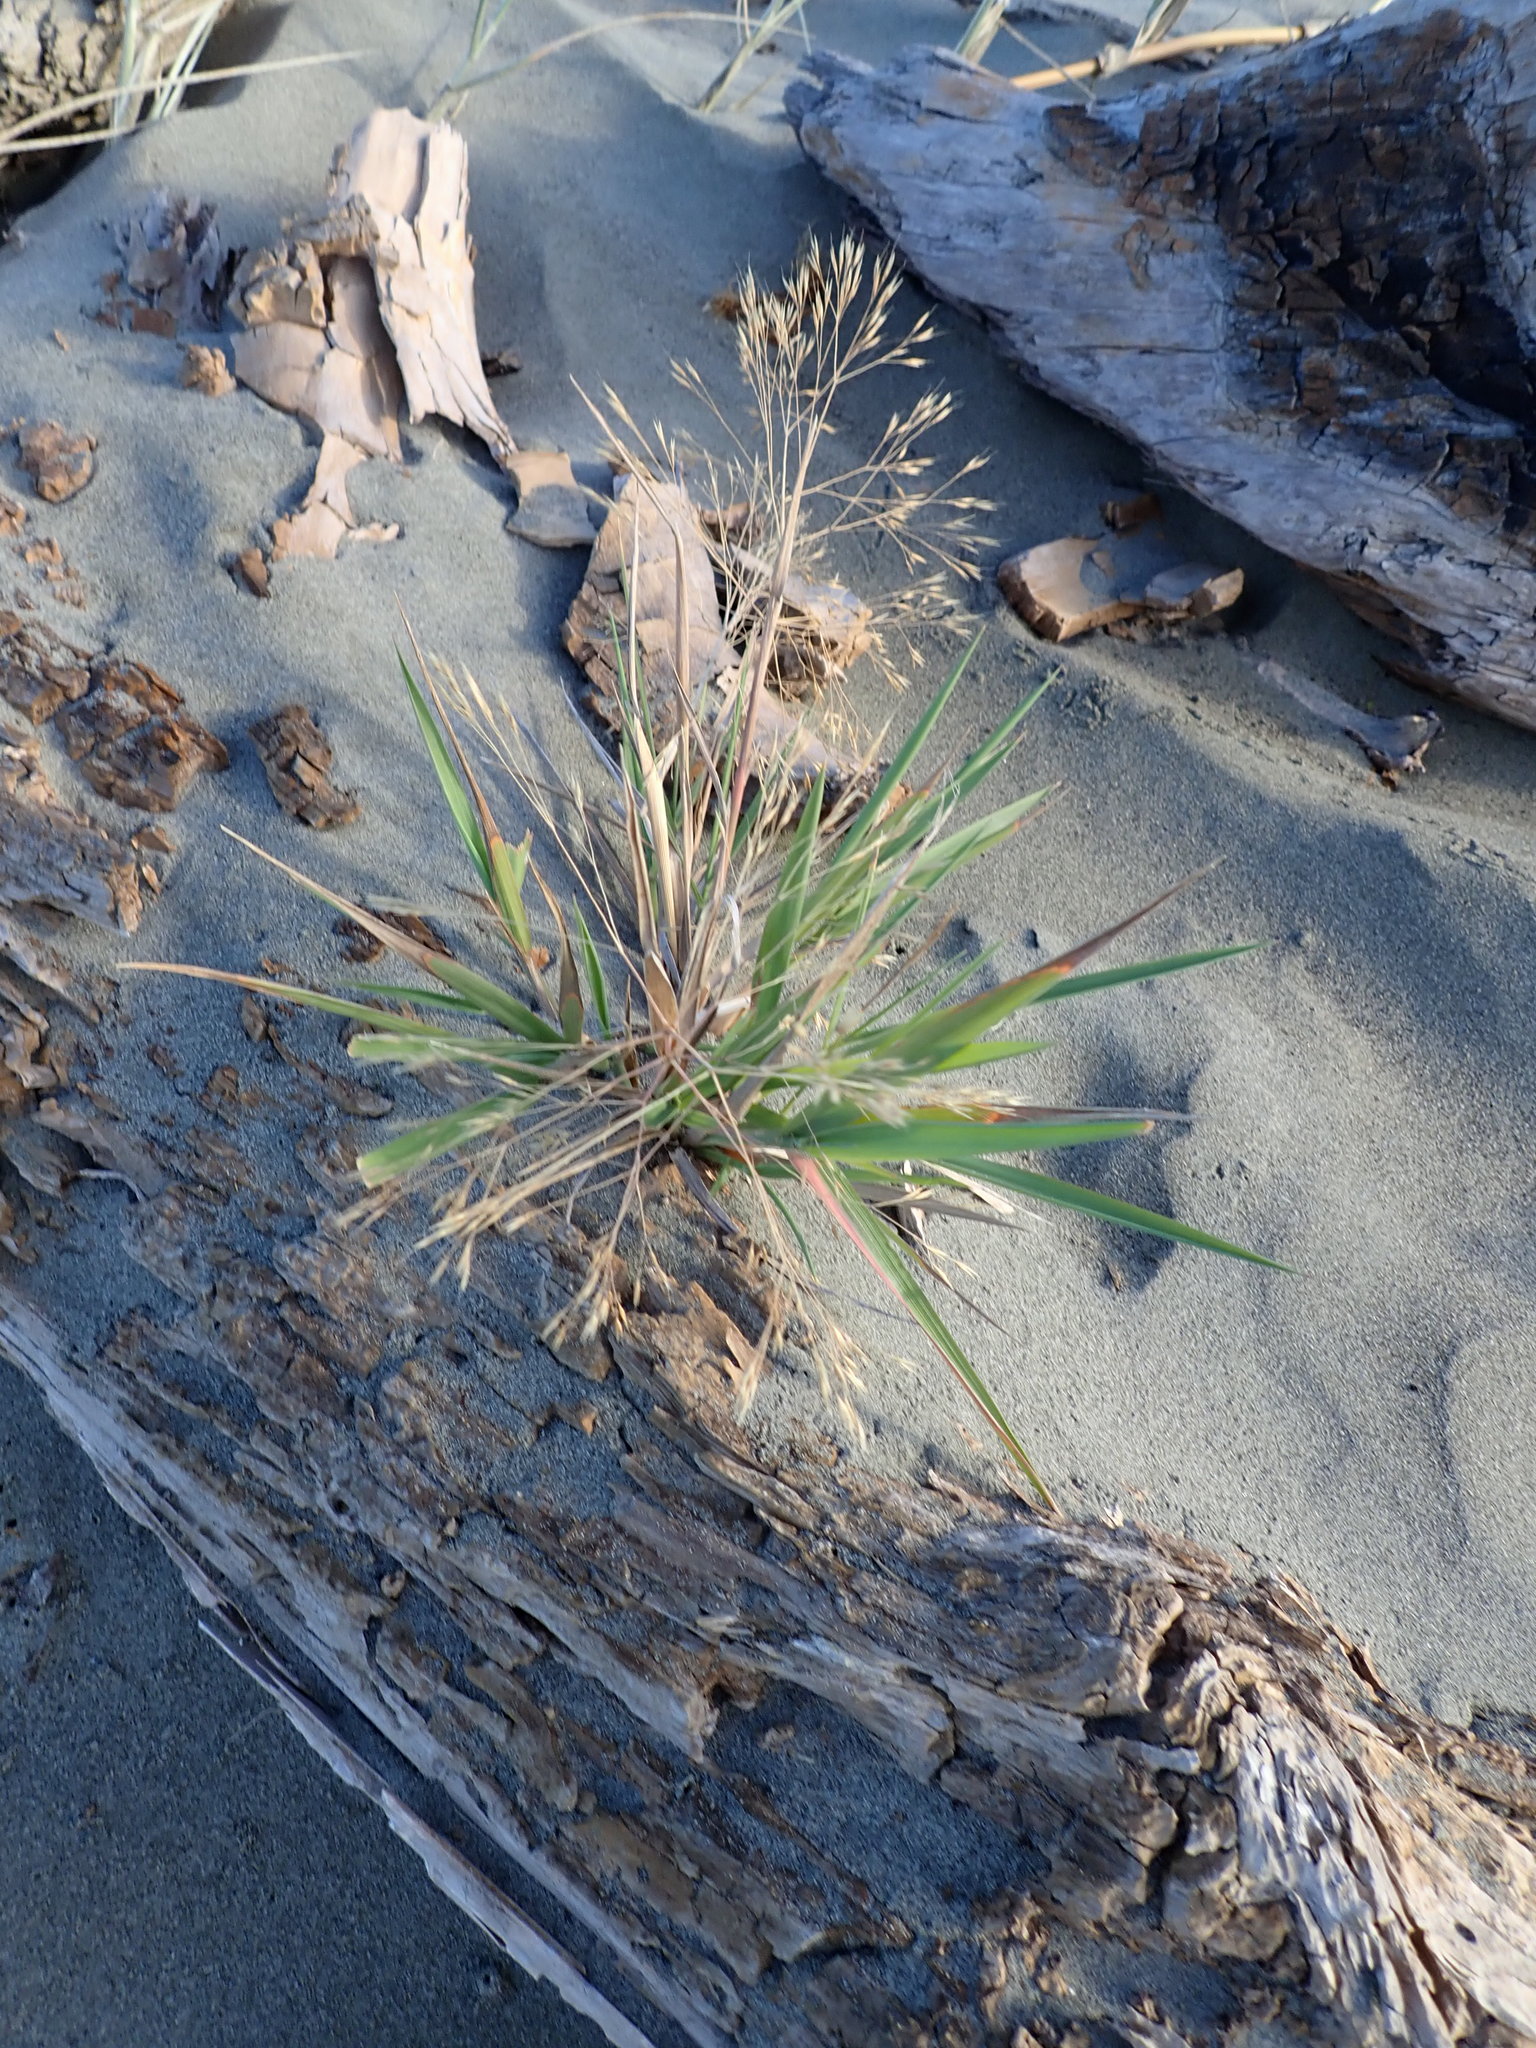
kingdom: Plantae
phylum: Tracheophyta
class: Liliopsida
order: Poales
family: Poaceae
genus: Lachnagrostis
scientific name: Lachnagrostis billardierei
